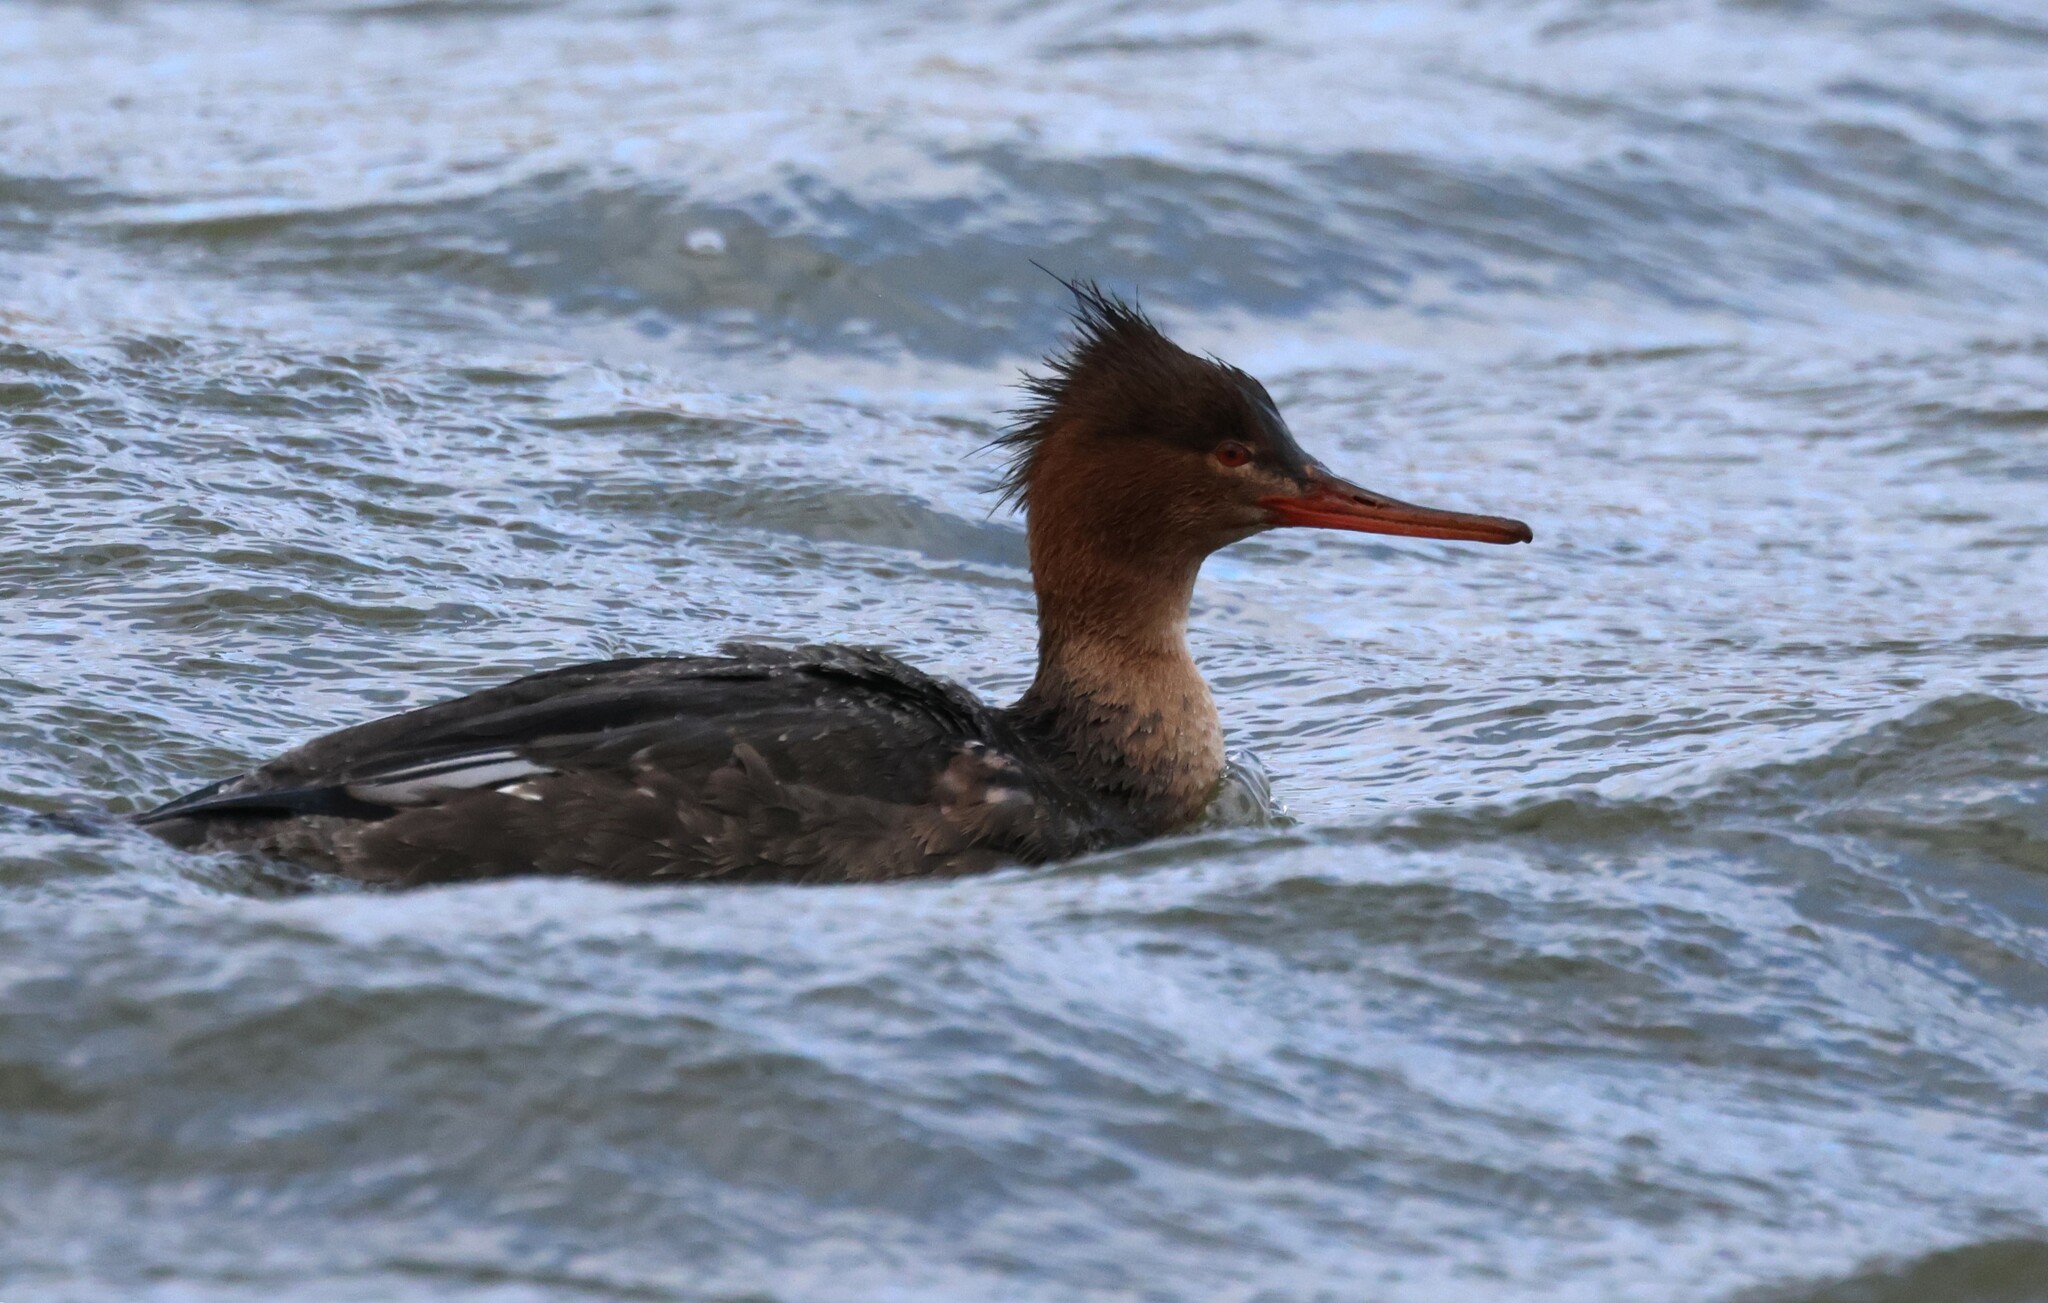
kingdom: Animalia
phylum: Chordata
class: Aves
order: Anseriformes
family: Anatidae
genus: Mergus
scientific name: Mergus serrator
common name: Red-breasted merganser
